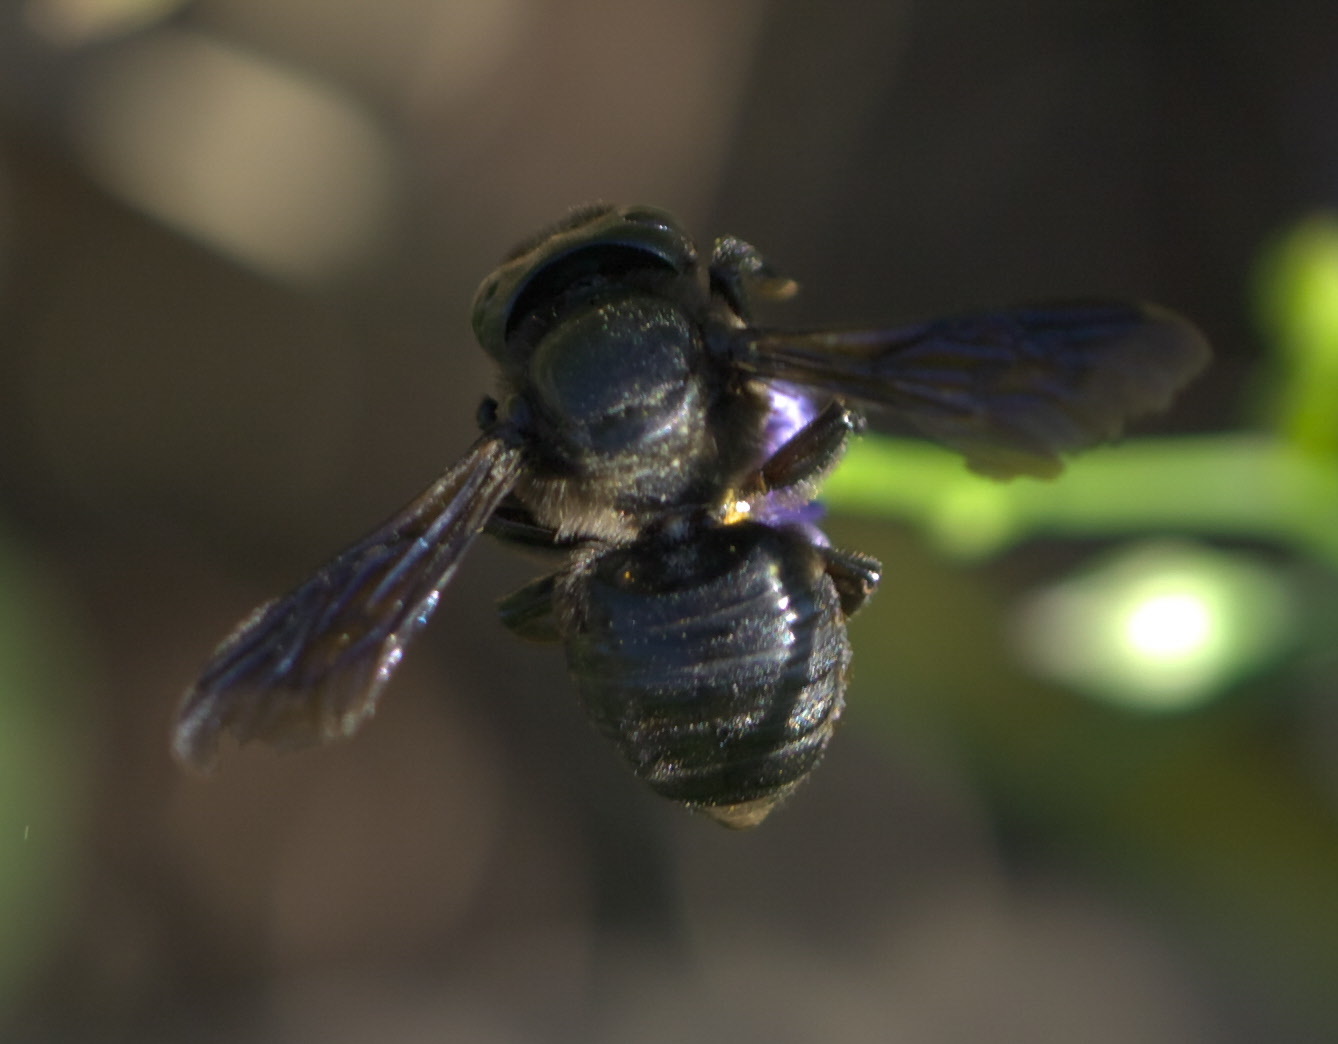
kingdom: Animalia
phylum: Arthropoda
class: Insecta
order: Hymenoptera
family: Megachilidae
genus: Megachile
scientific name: Megachile xylocopoides
